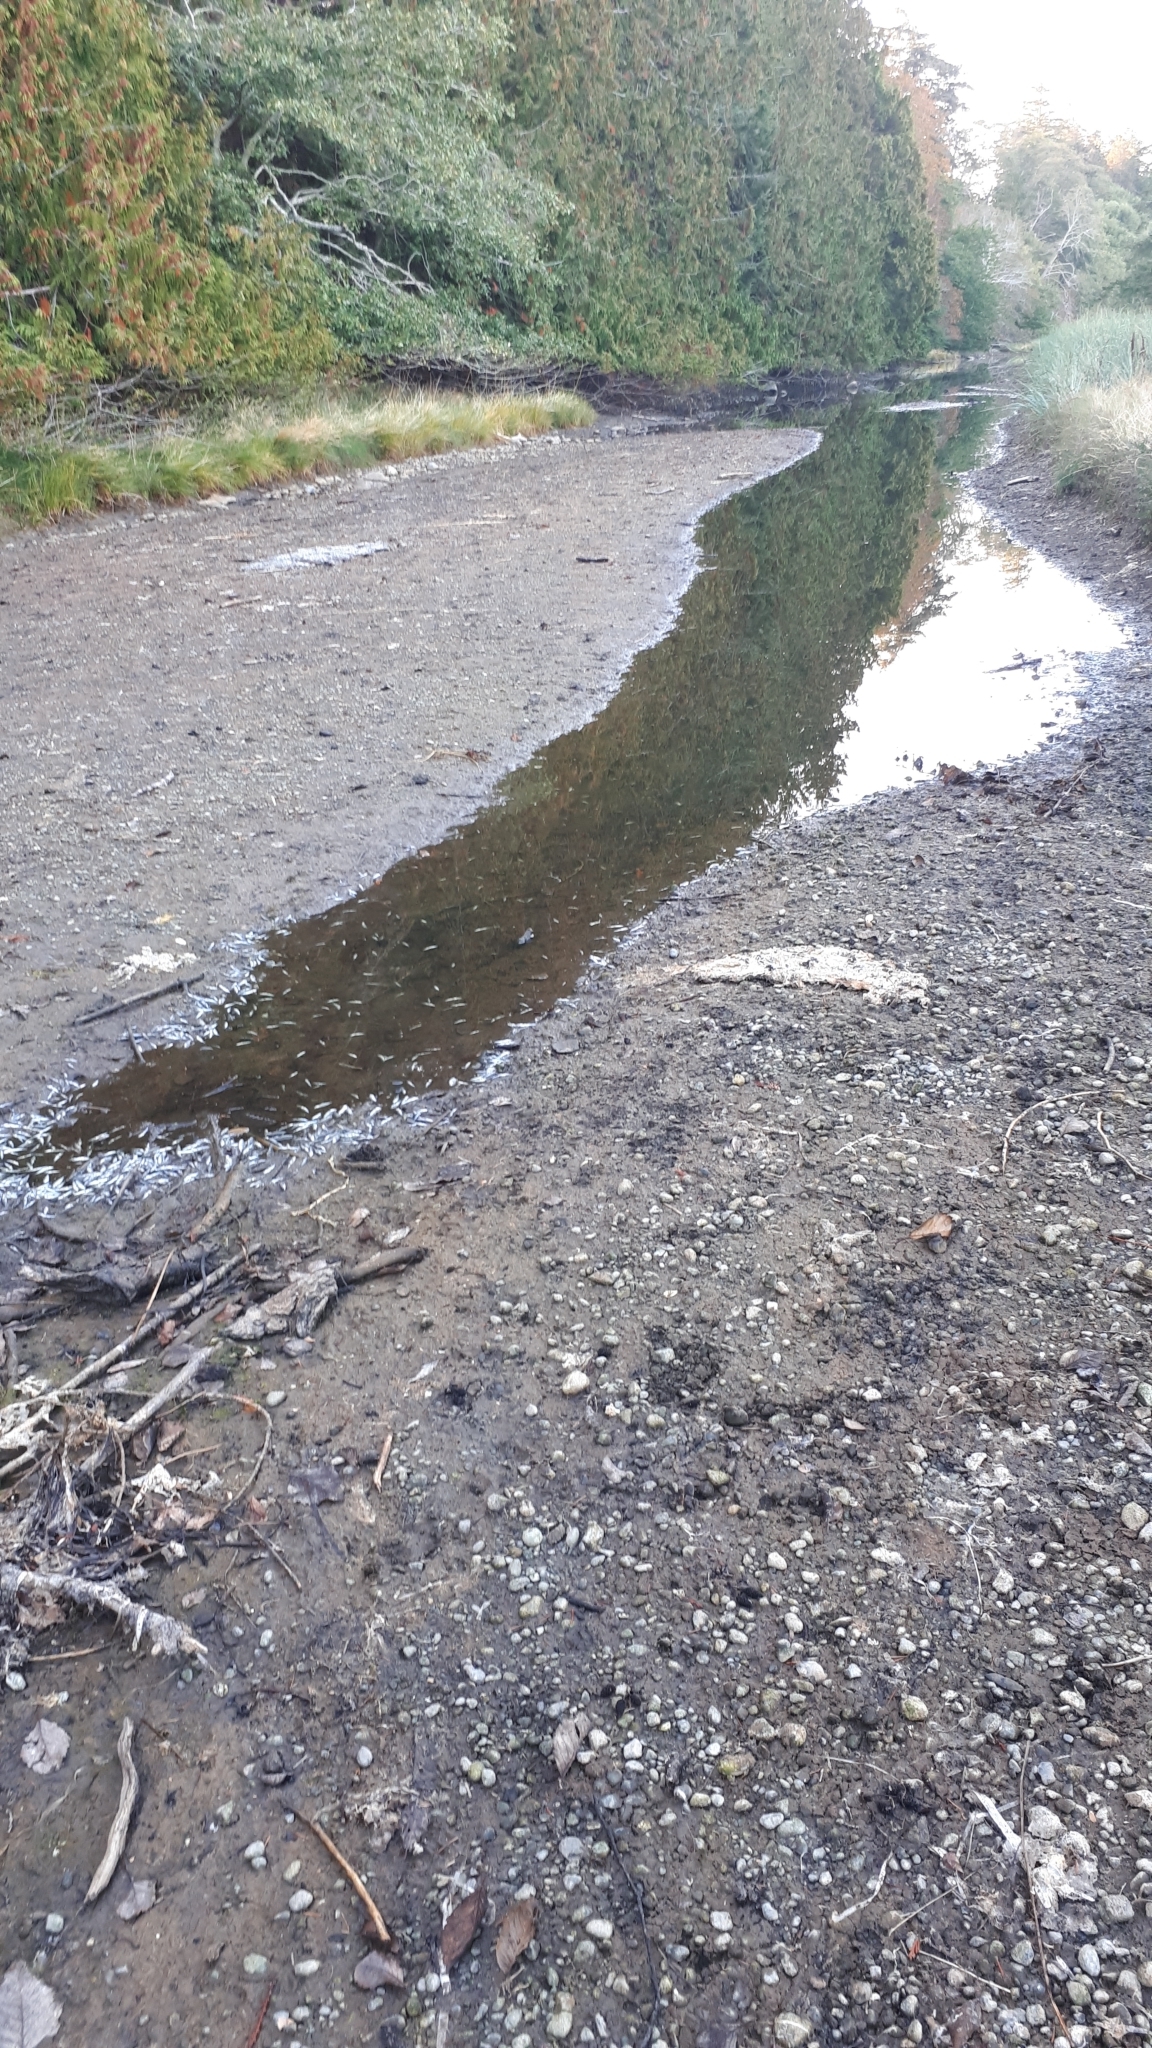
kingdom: Animalia
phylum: Chordata
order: Gasterosteiformes
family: Gasterosteidae
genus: Gasterosteus
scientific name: Gasterosteus aculeatus
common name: Three-spined stickleback
